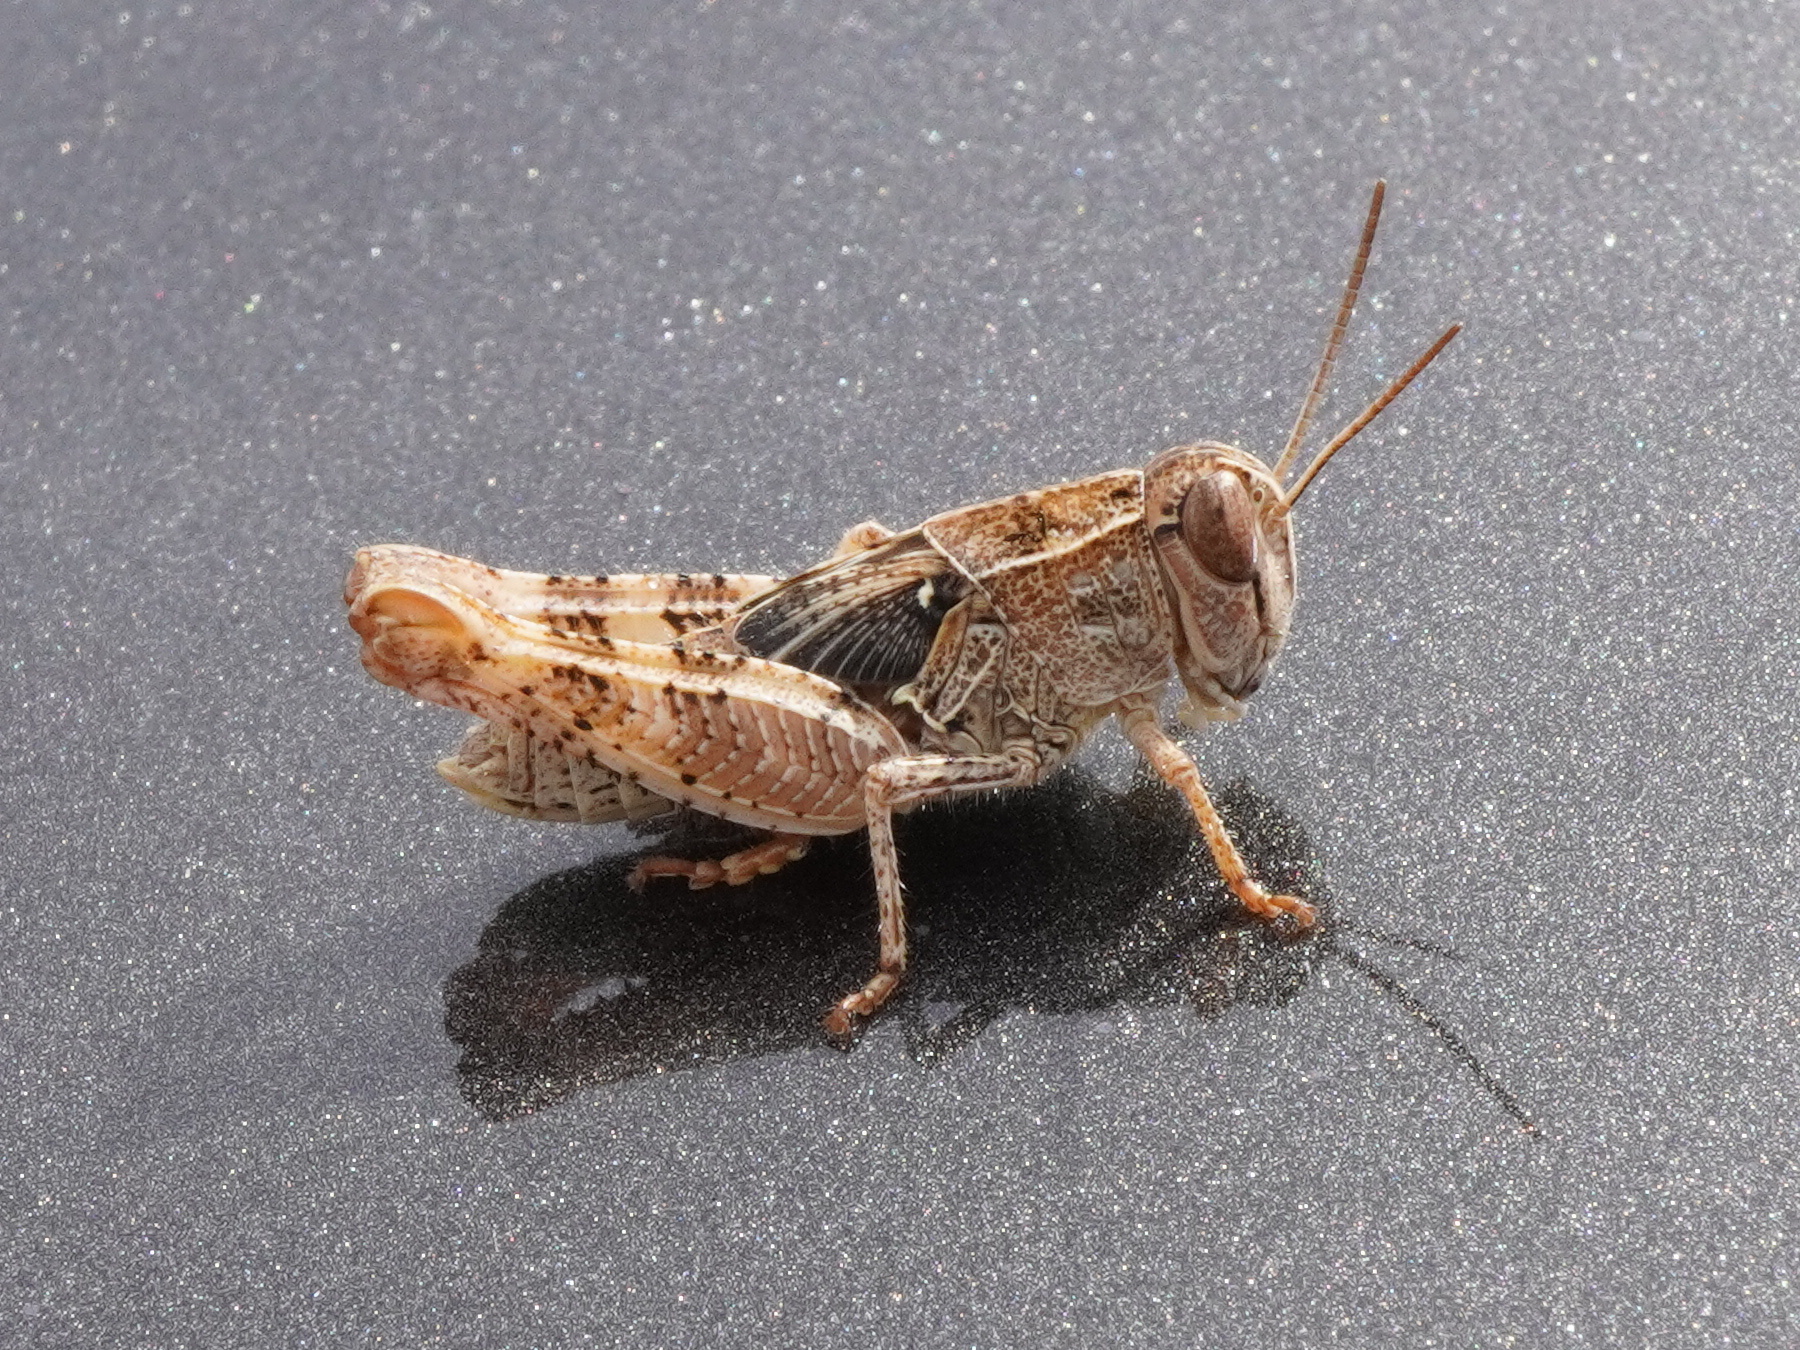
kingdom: Animalia
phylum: Arthropoda
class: Insecta
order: Orthoptera
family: Acrididae
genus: Calliptamus
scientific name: Calliptamus italicus
